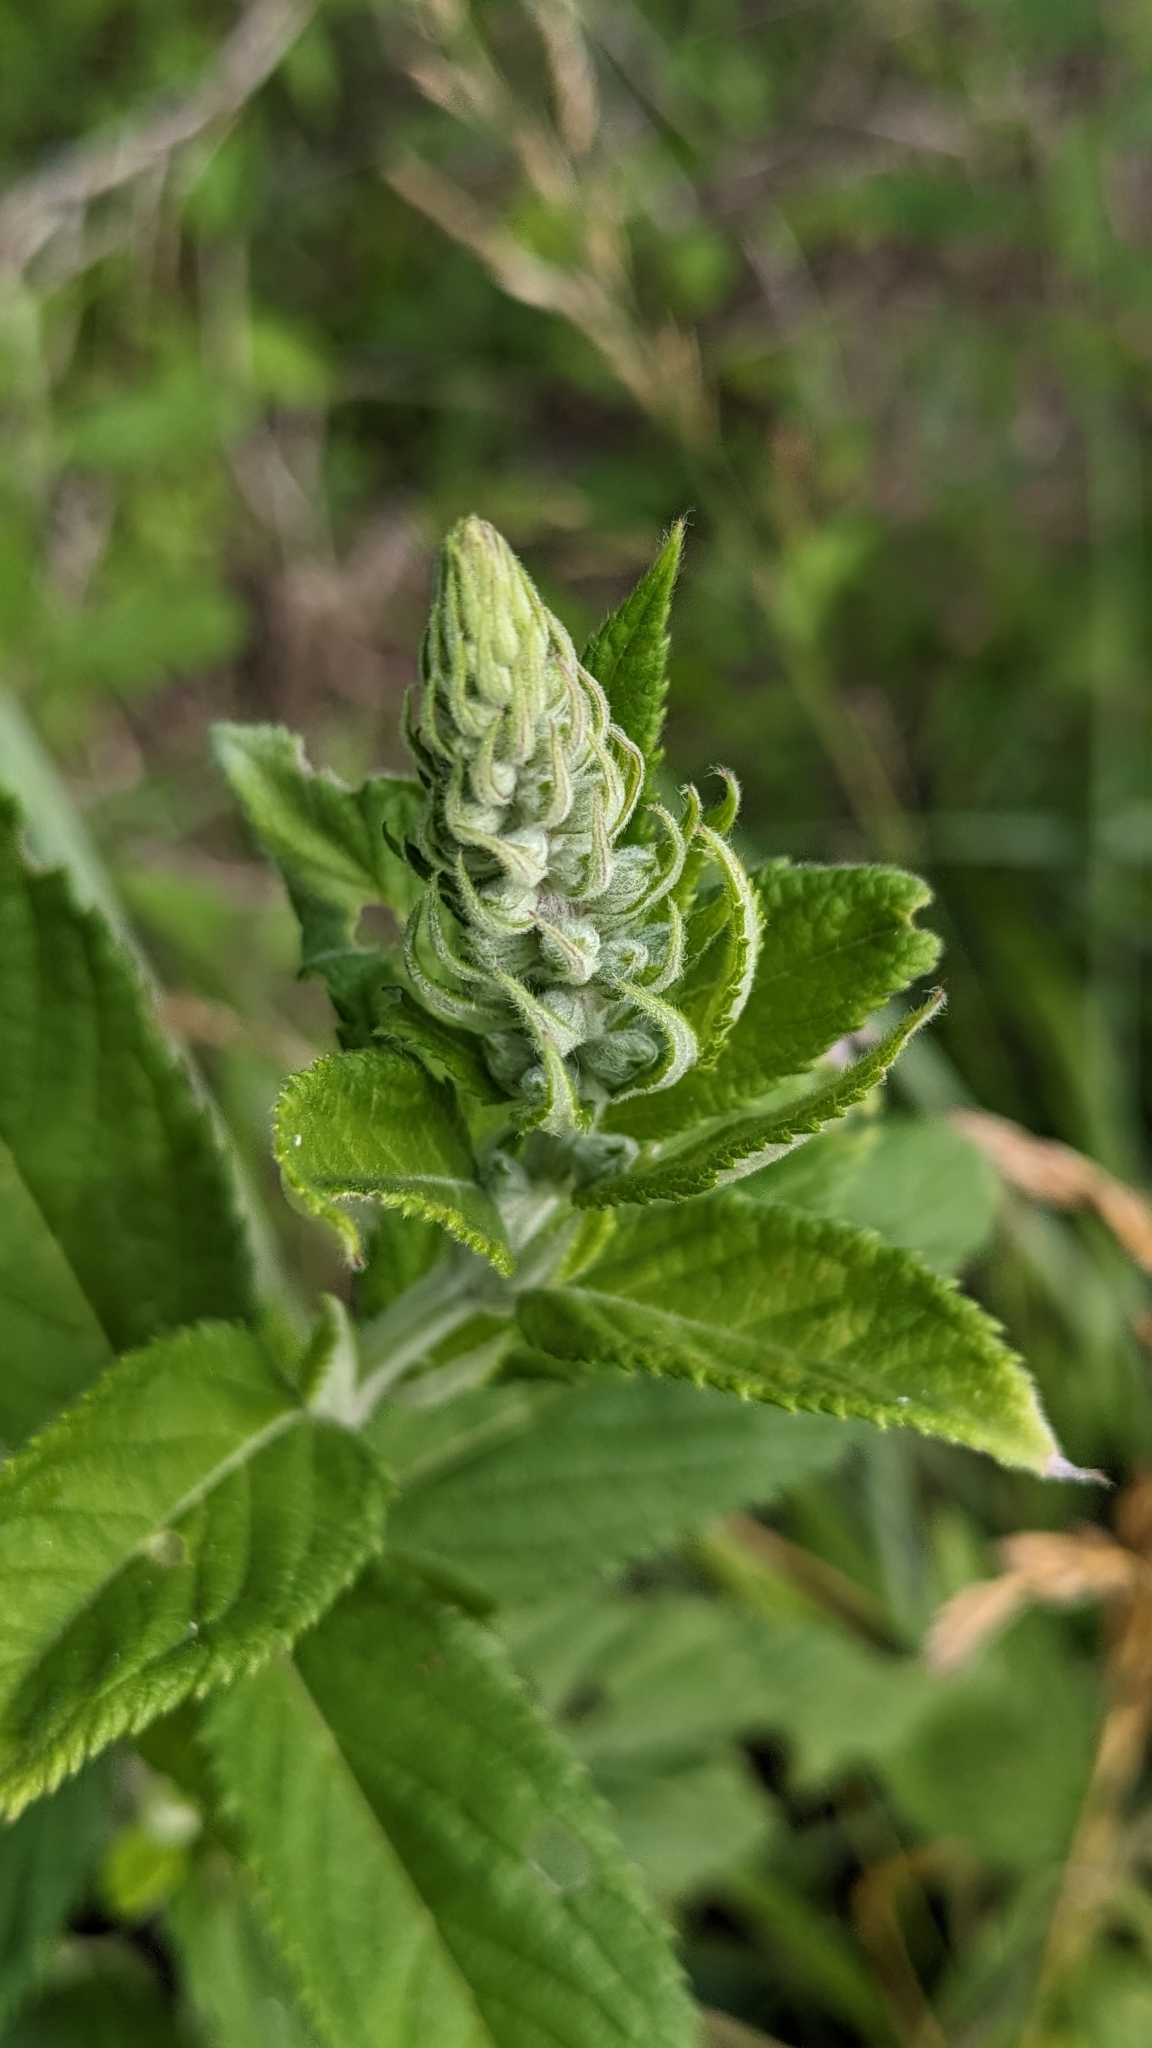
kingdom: Plantae
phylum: Tracheophyta
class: Magnoliopsida
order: Lamiales
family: Lamiaceae
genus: Teucrium
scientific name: Teucrium canadense
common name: American germander
